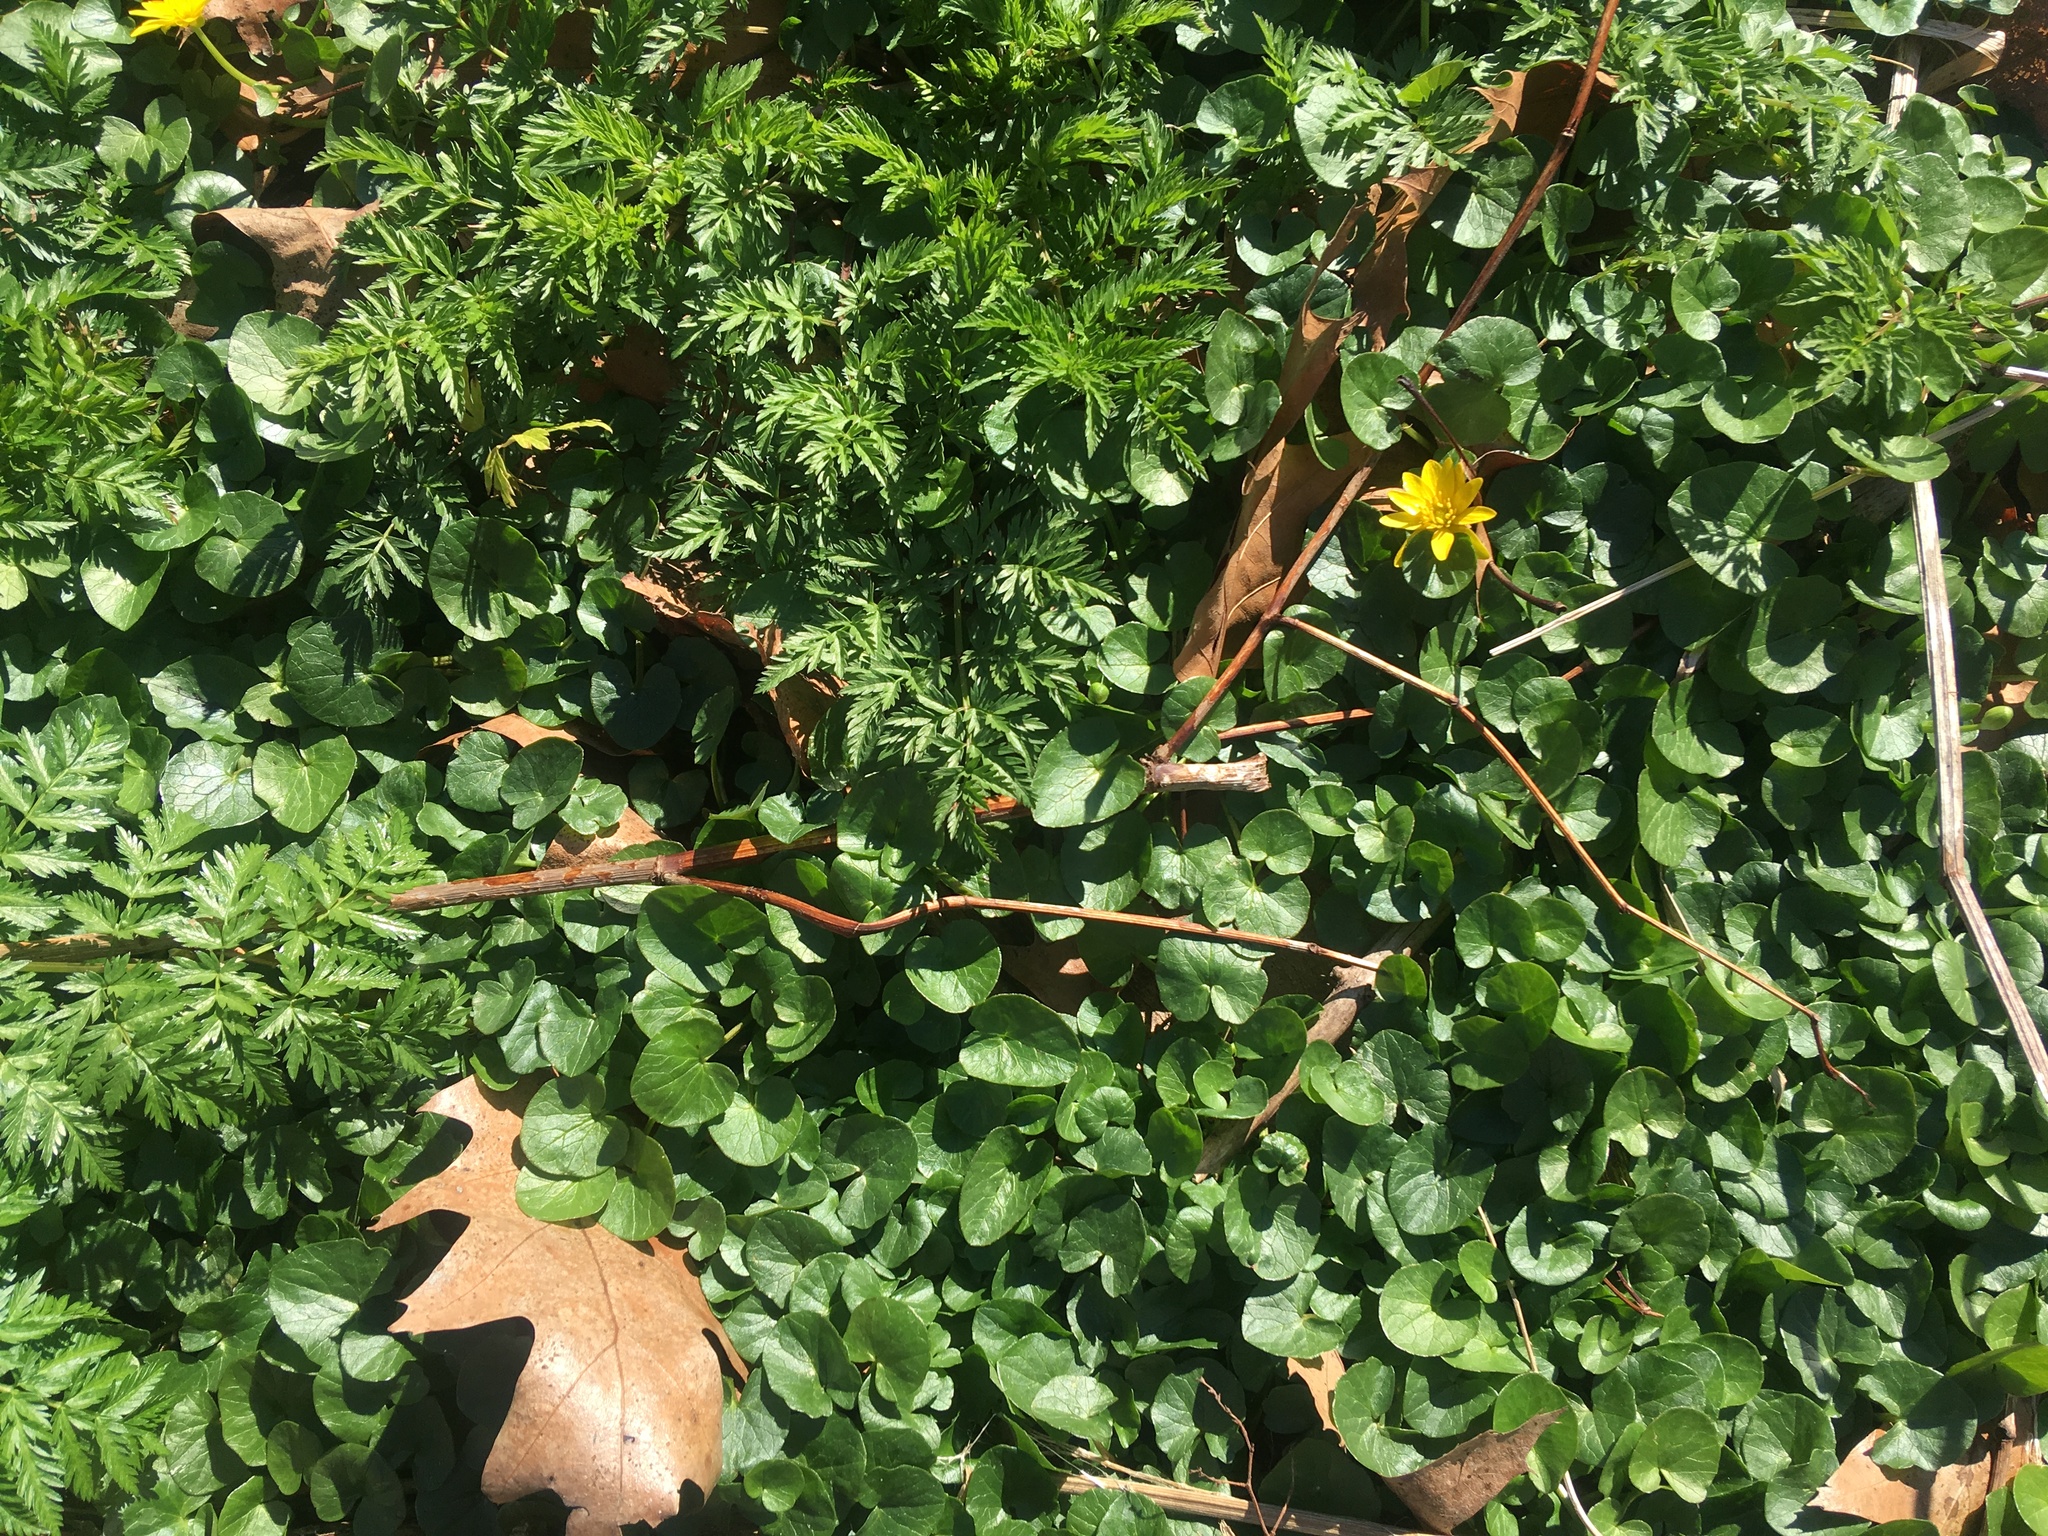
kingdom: Plantae
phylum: Tracheophyta
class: Magnoliopsida
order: Ranunculales
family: Ranunculaceae
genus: Ficaria
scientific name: Ficaria verna
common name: Lesser celandine
